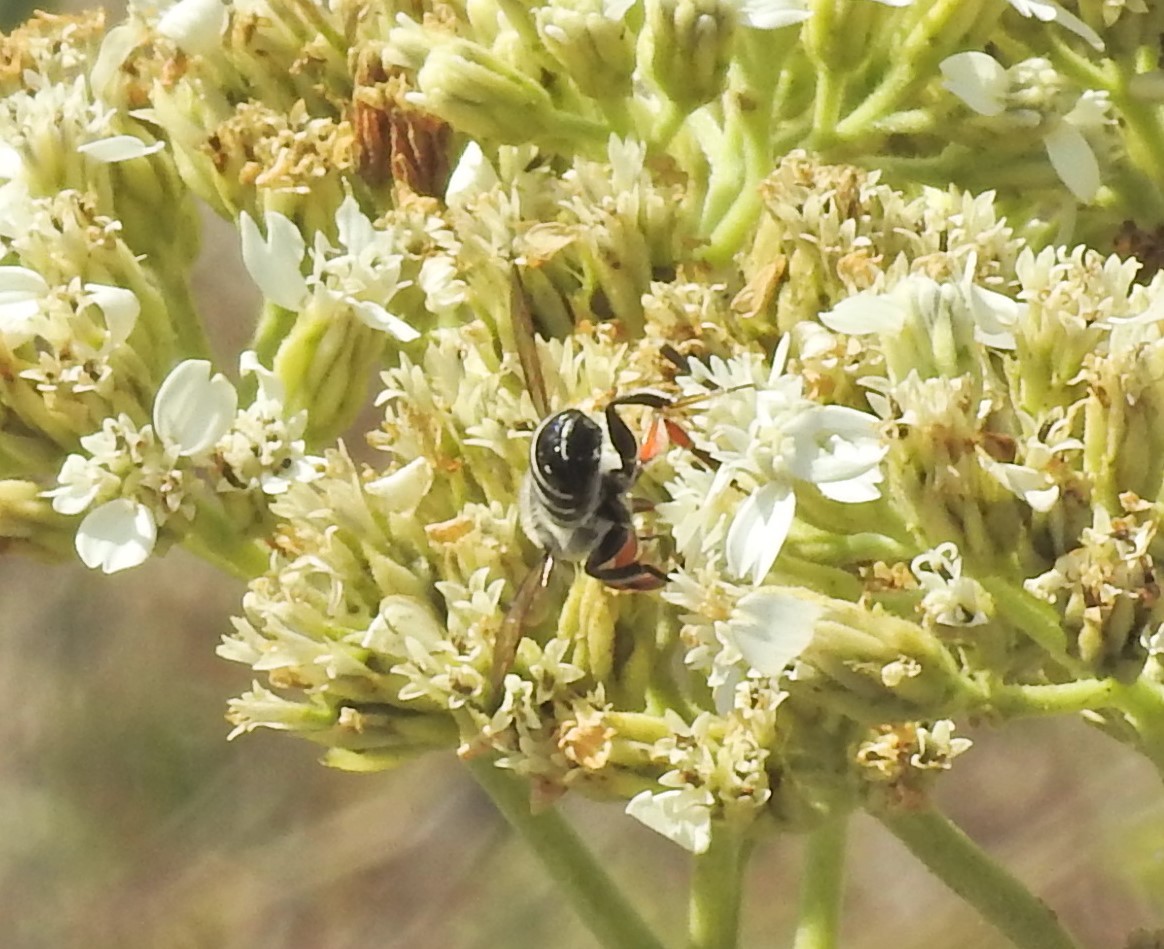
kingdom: Animalia
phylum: Arthropoda
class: Insecta
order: Hymenoptera
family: Megachilidae
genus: Megachile
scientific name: Megachile policaris
